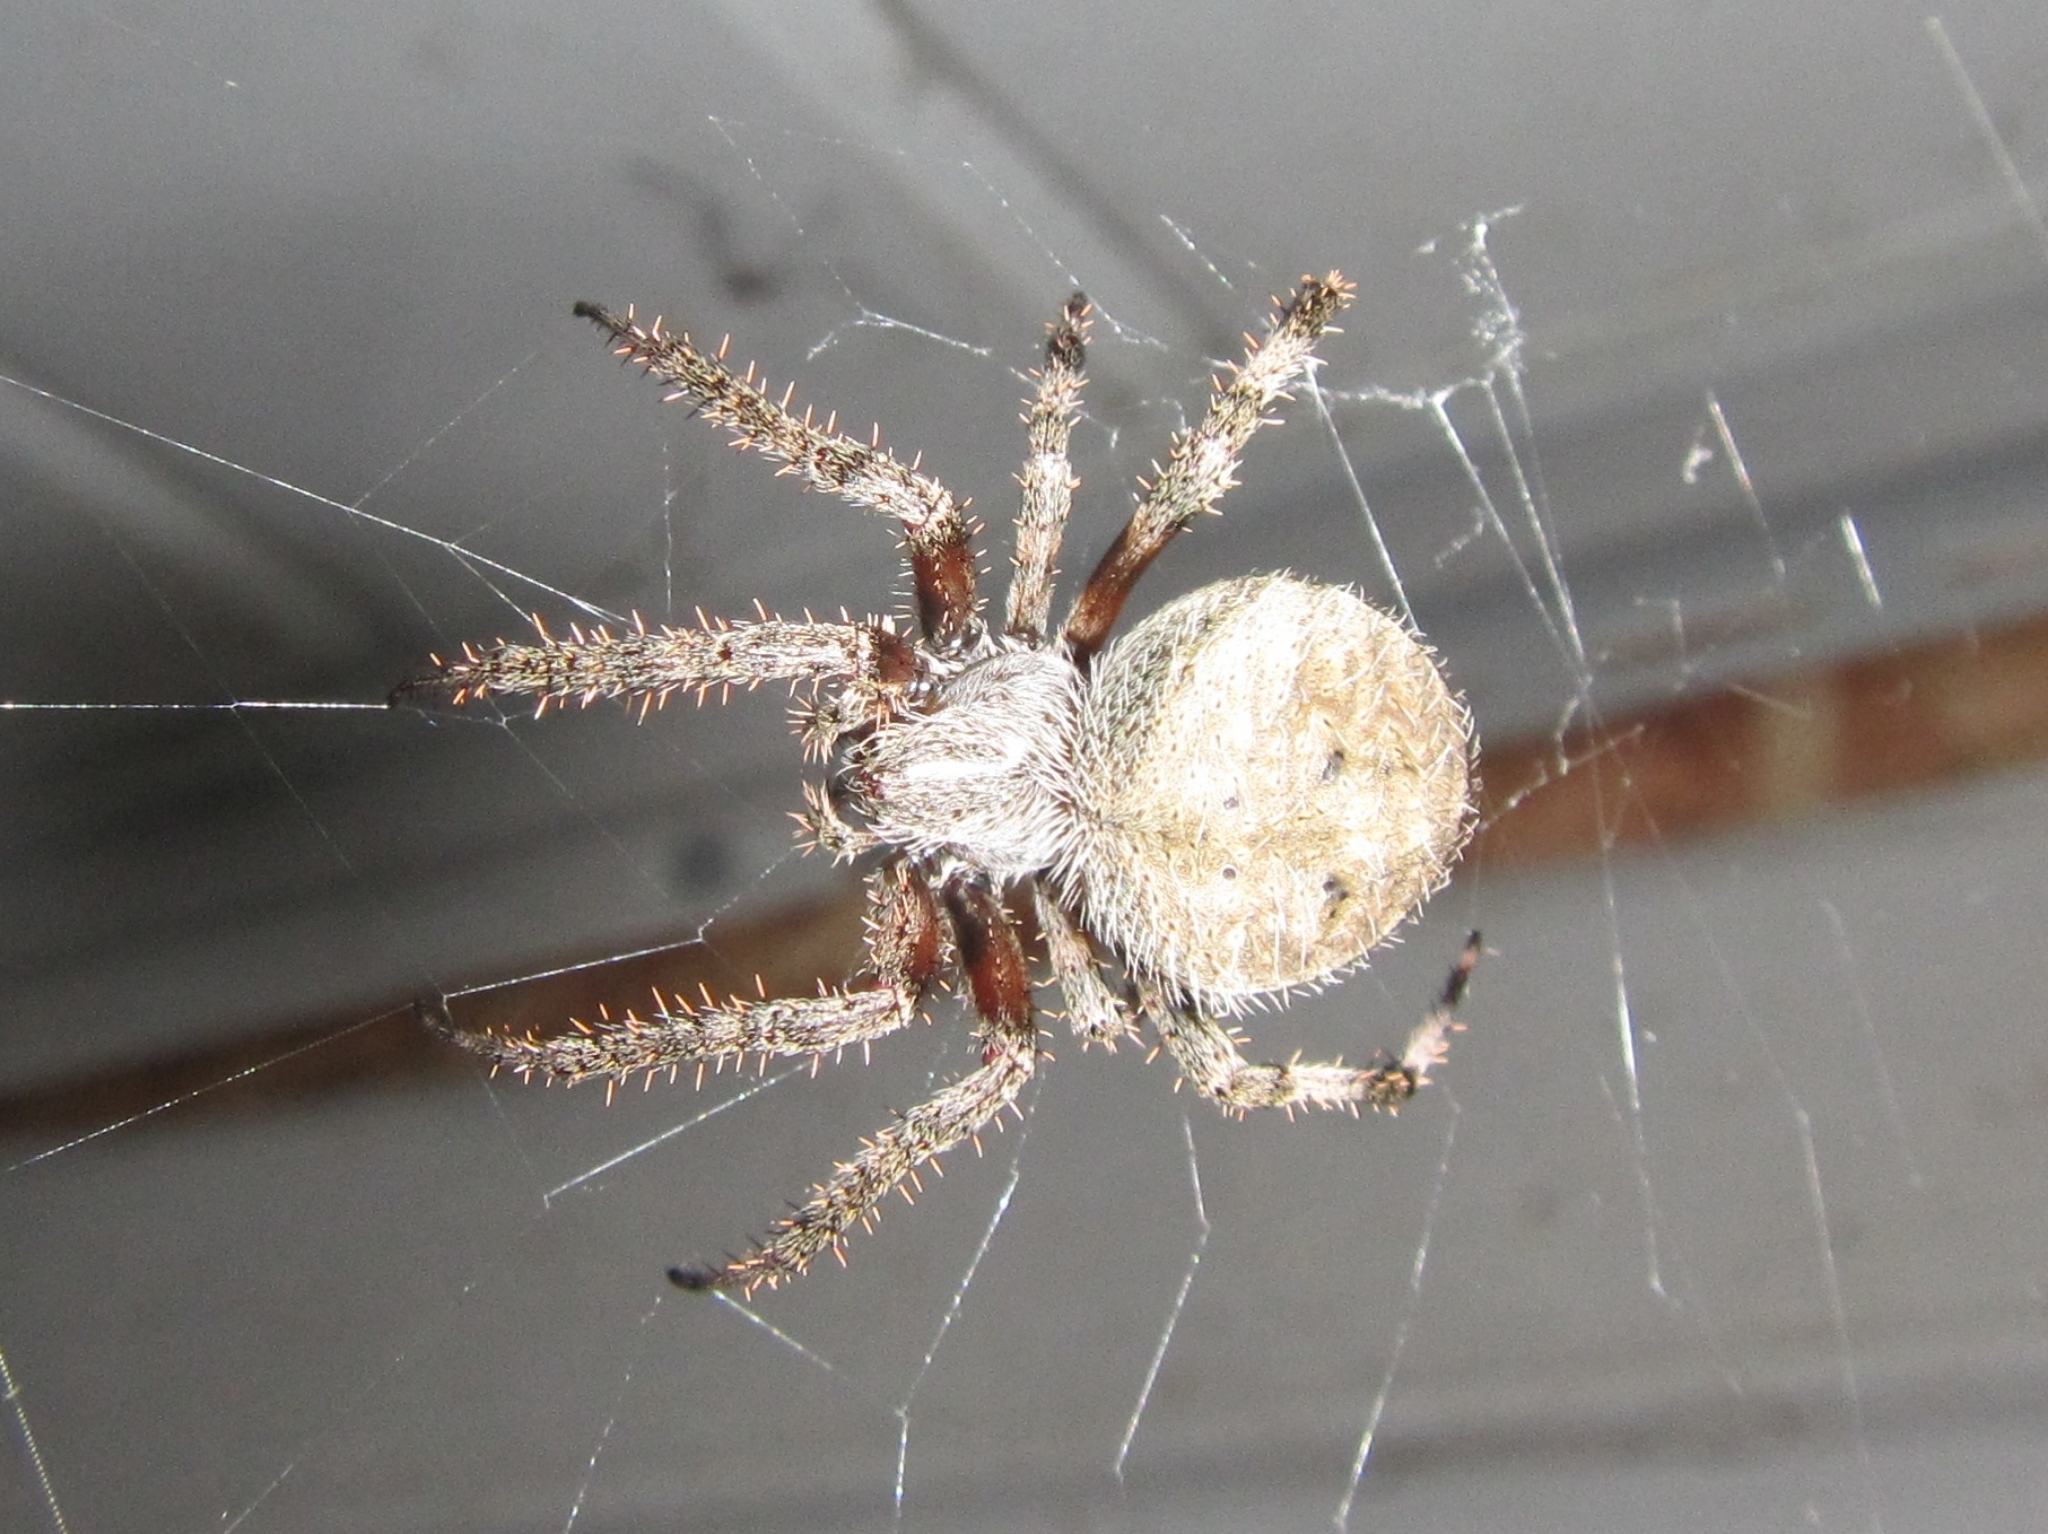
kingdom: Animalia
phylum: Arthropoda
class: Arachnida
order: Araneae
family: Araneidae
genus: Neoscona
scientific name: Neoscona crucifera
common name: Spotted orbweaver
